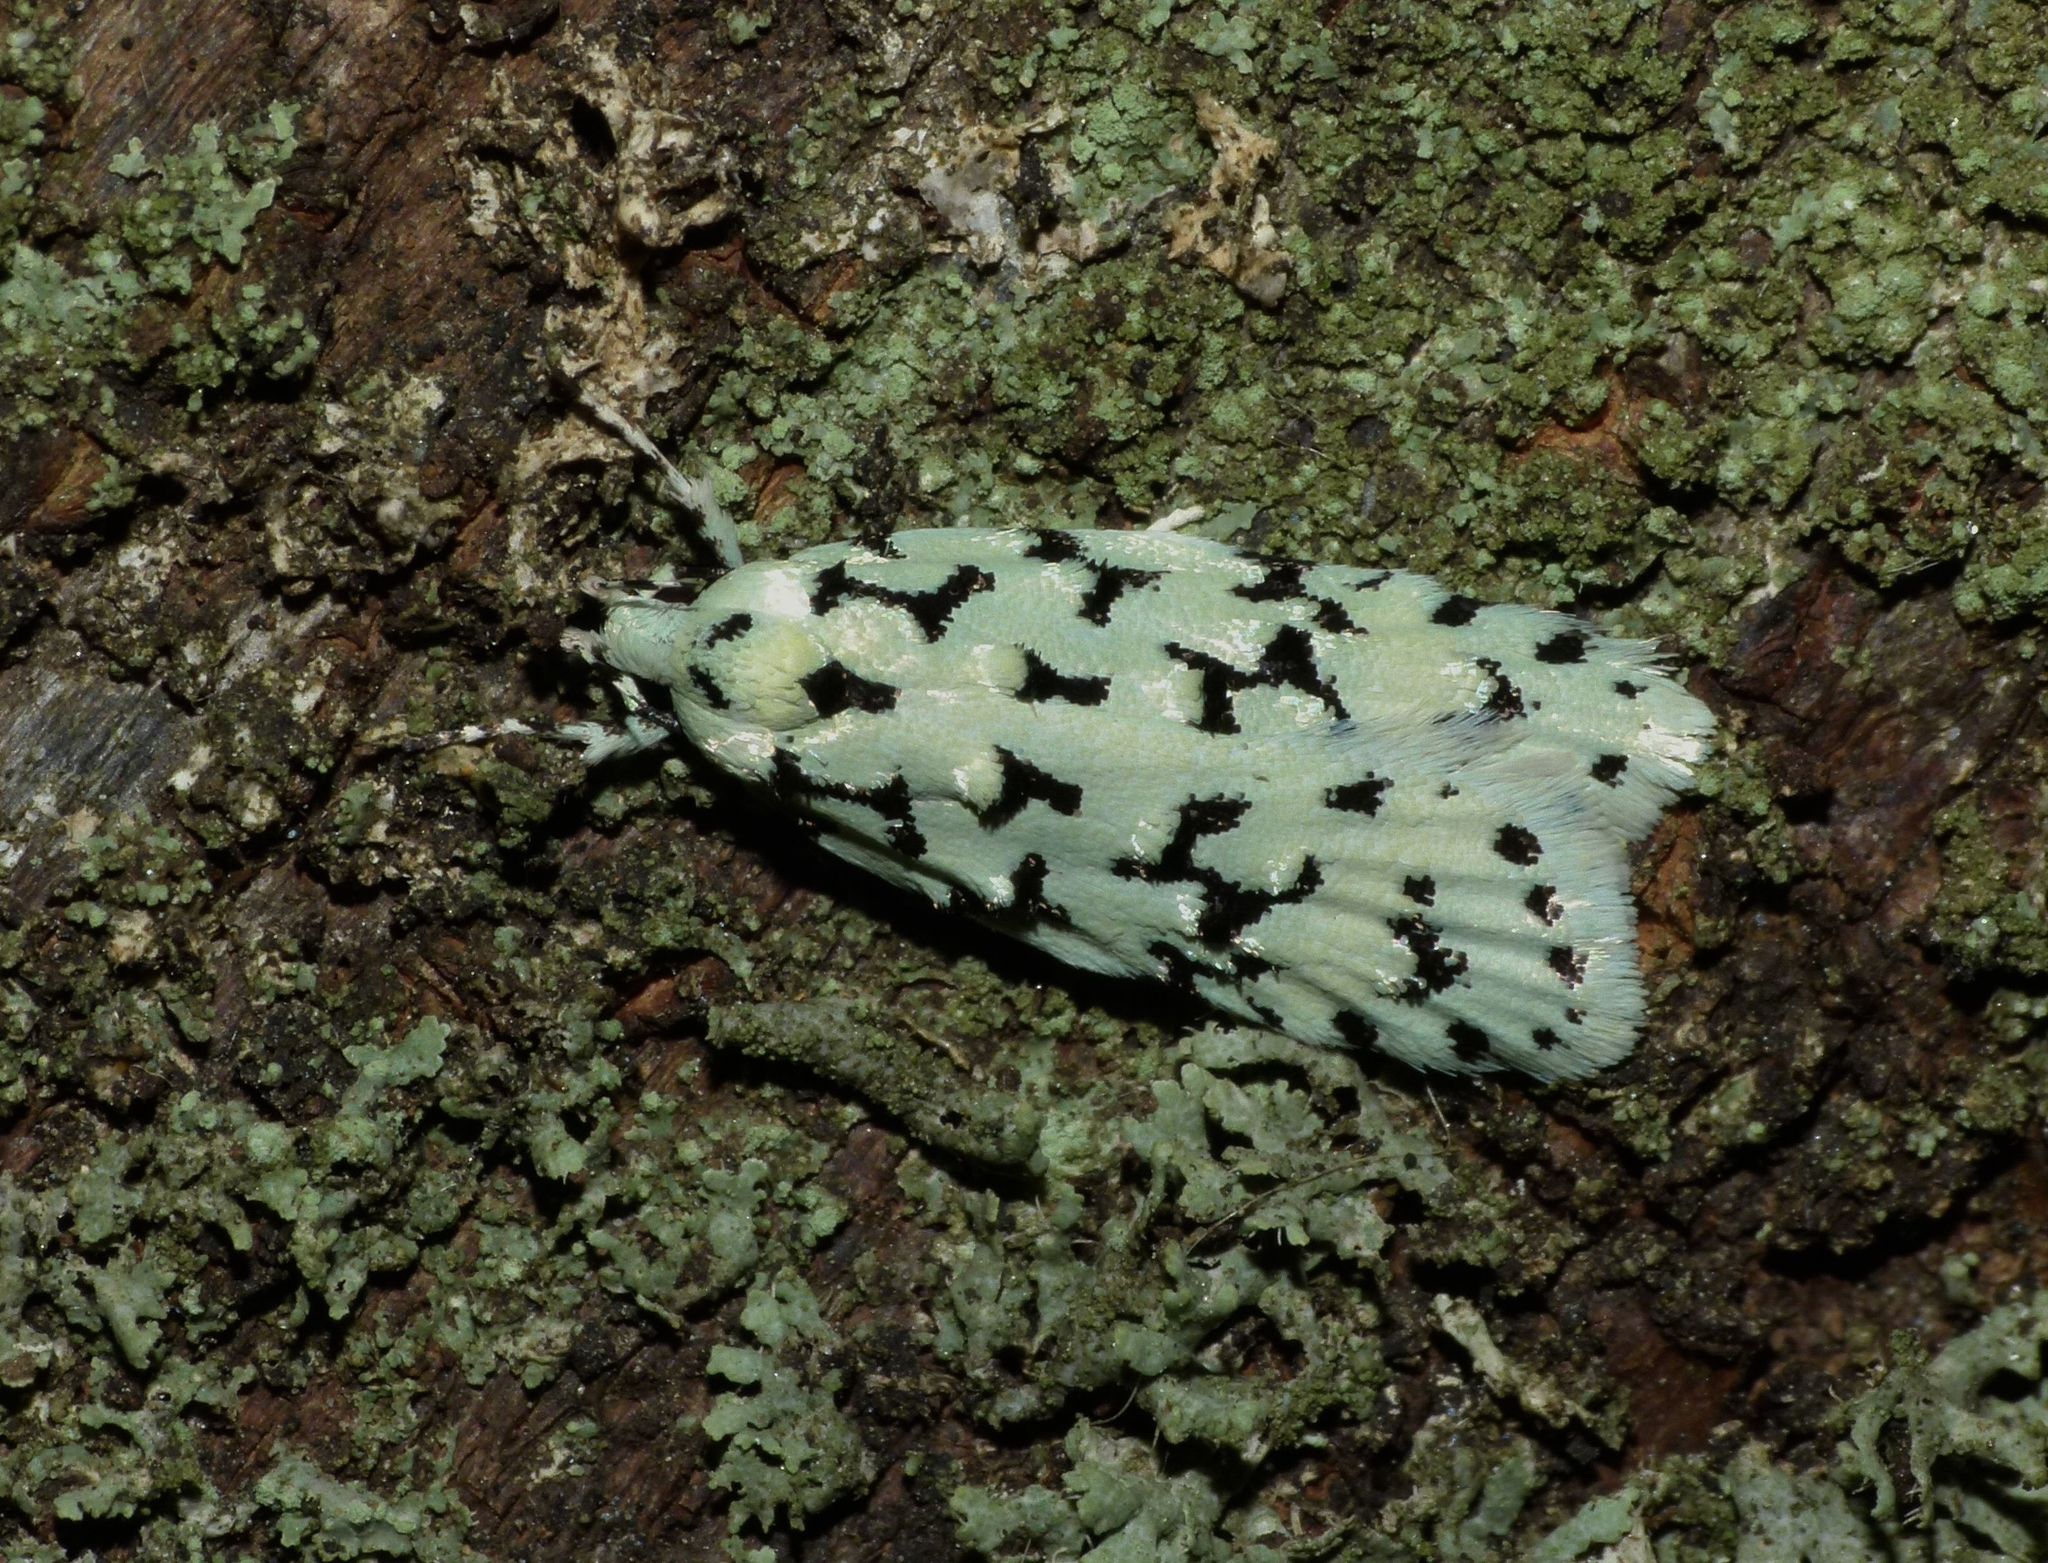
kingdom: Animalia
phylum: Arthropoda
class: Insecta
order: Lepidoptera
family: Oecophoridae
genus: Izatha
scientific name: Izatha huttoni
